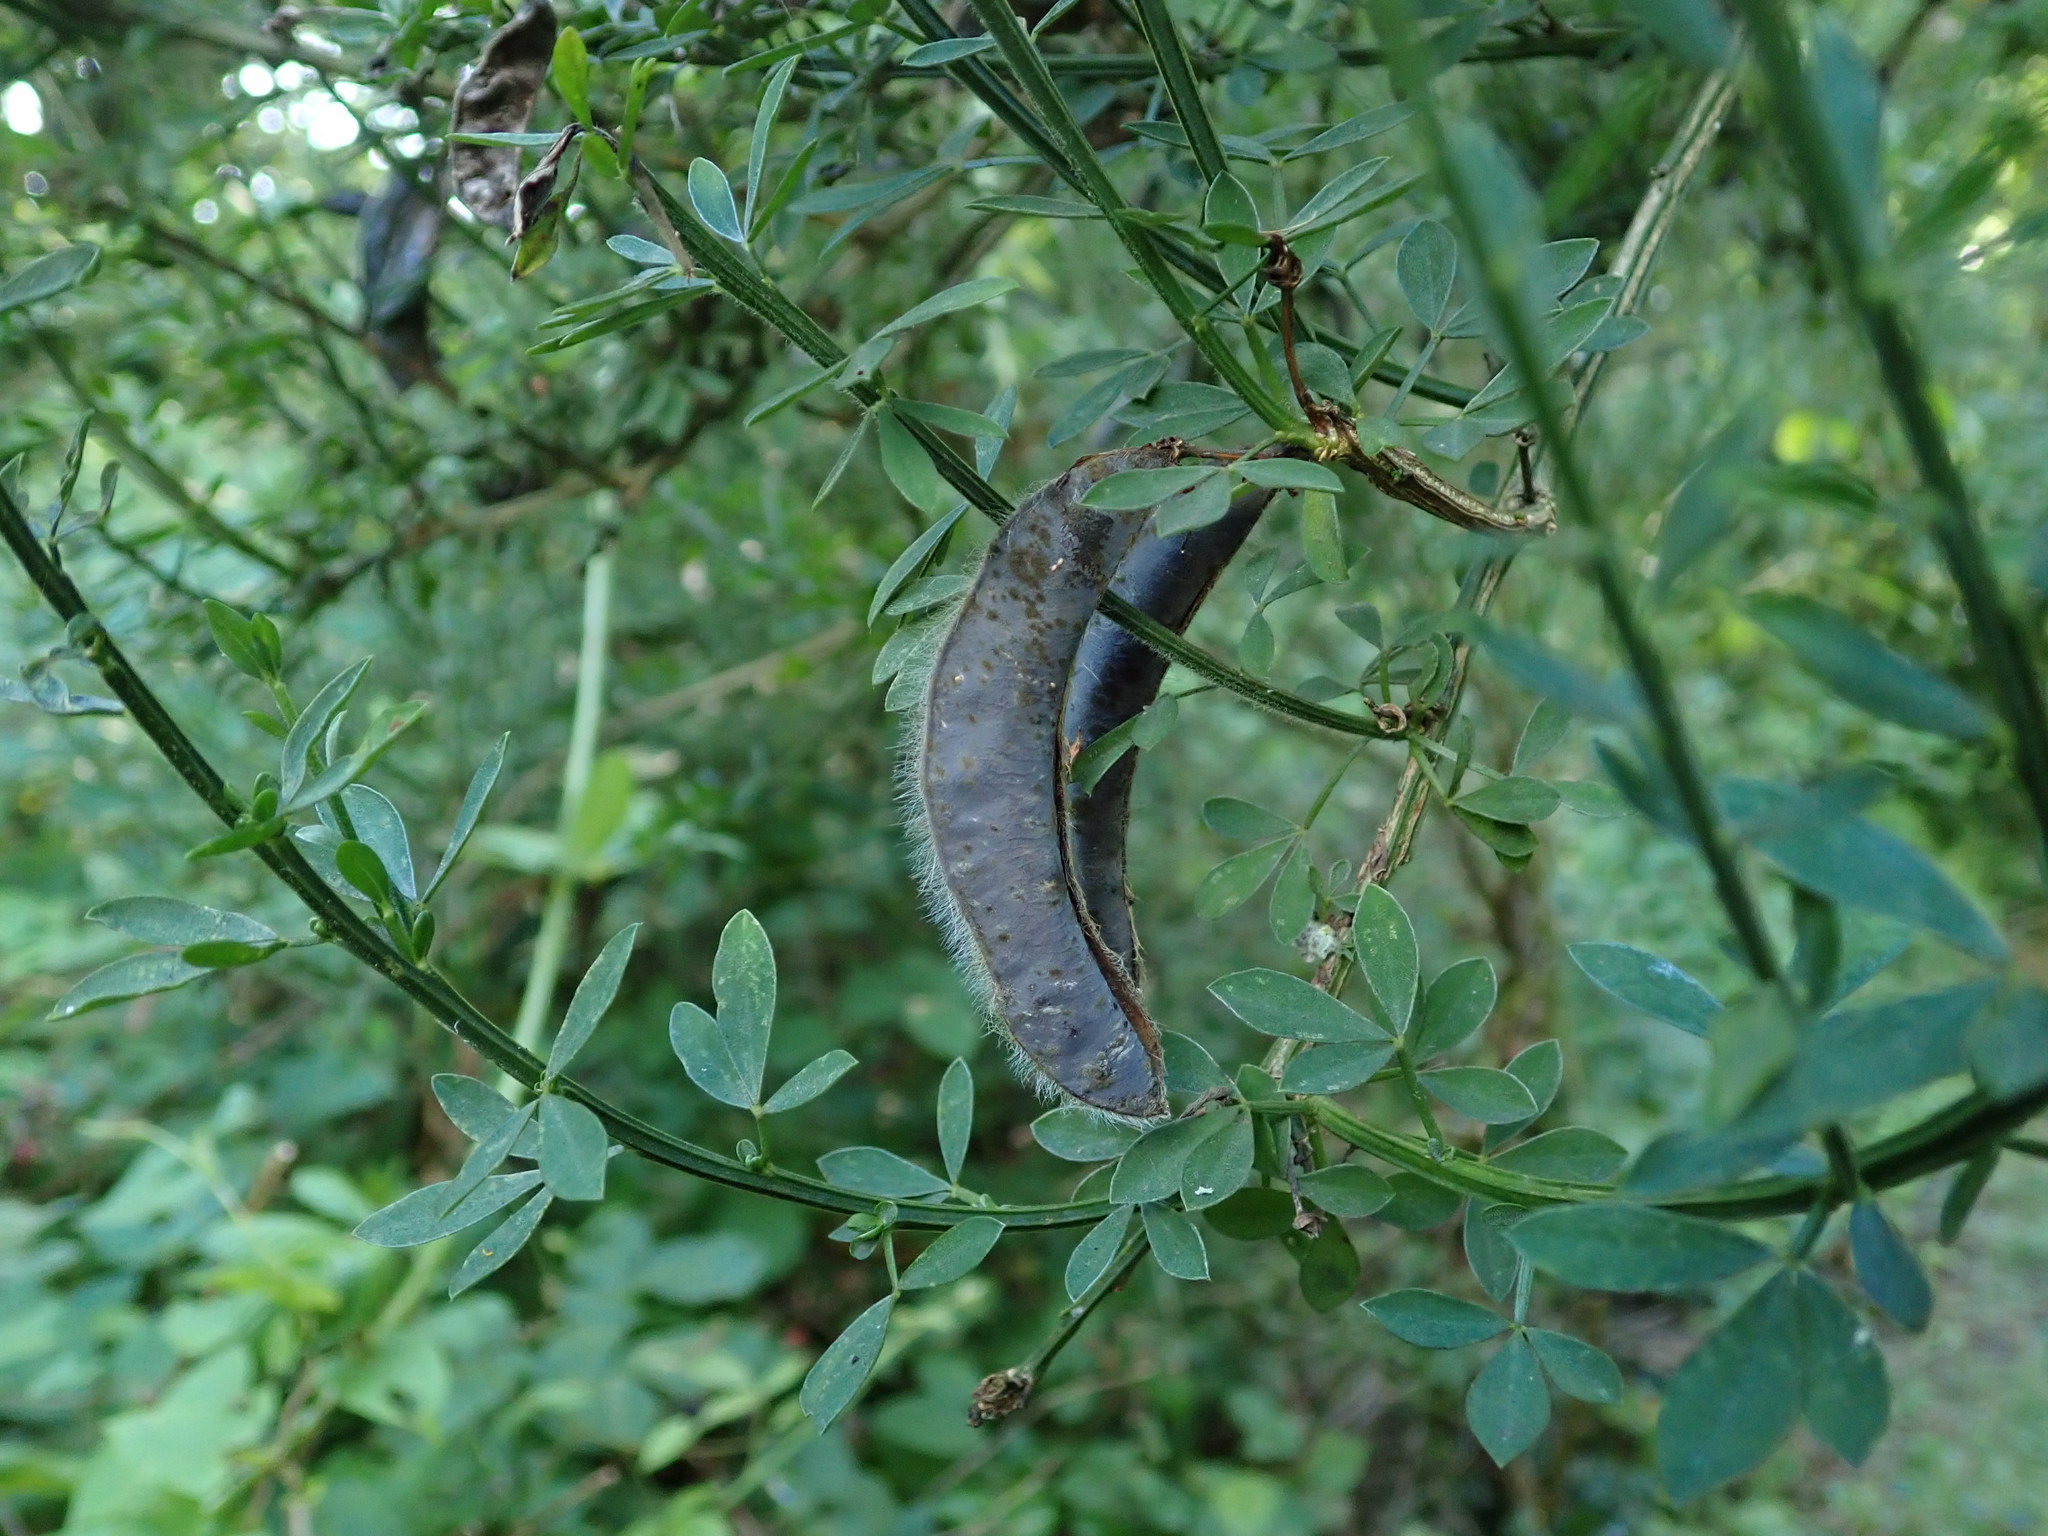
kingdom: Plantae
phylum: Tracheophyta
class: Magnoliopsida
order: Fabales
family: Fabaceae
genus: Cytisus
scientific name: Cytisus scoparius
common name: Scotch broom
